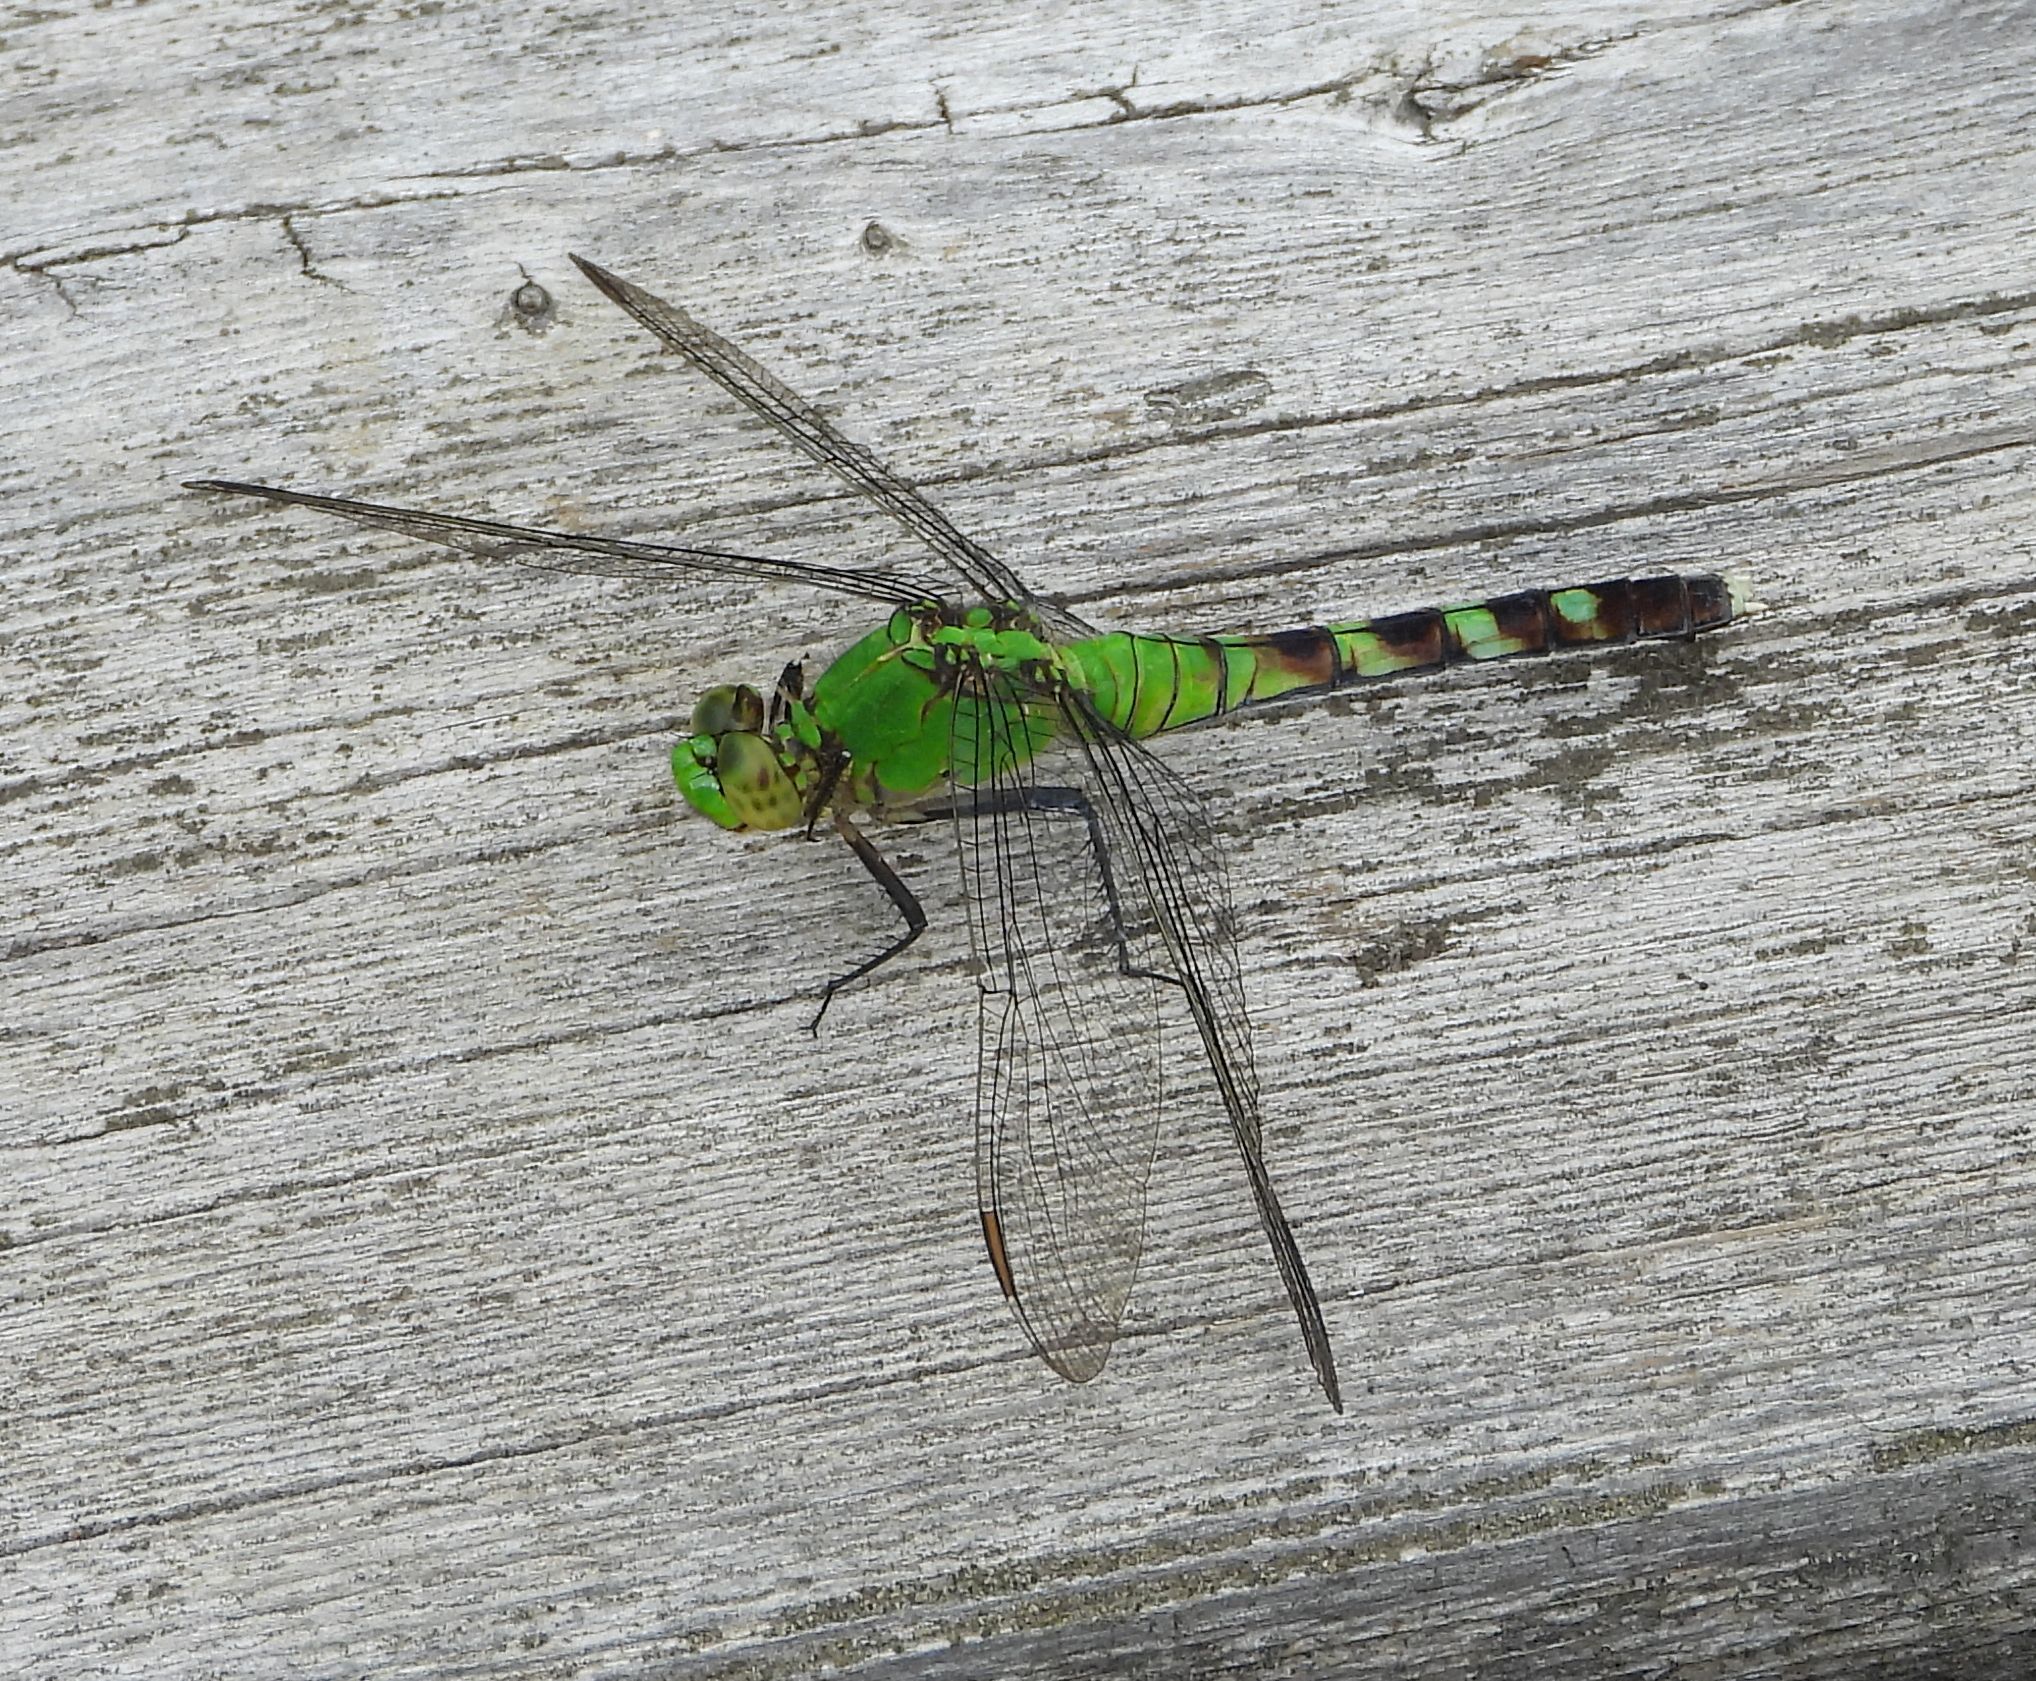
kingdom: Animalia
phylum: Arthropoda
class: Insecta
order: Odonata
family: Libellulidae
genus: Erythemis
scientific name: Erythemis simplicicollis
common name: Eastern pondhawk
